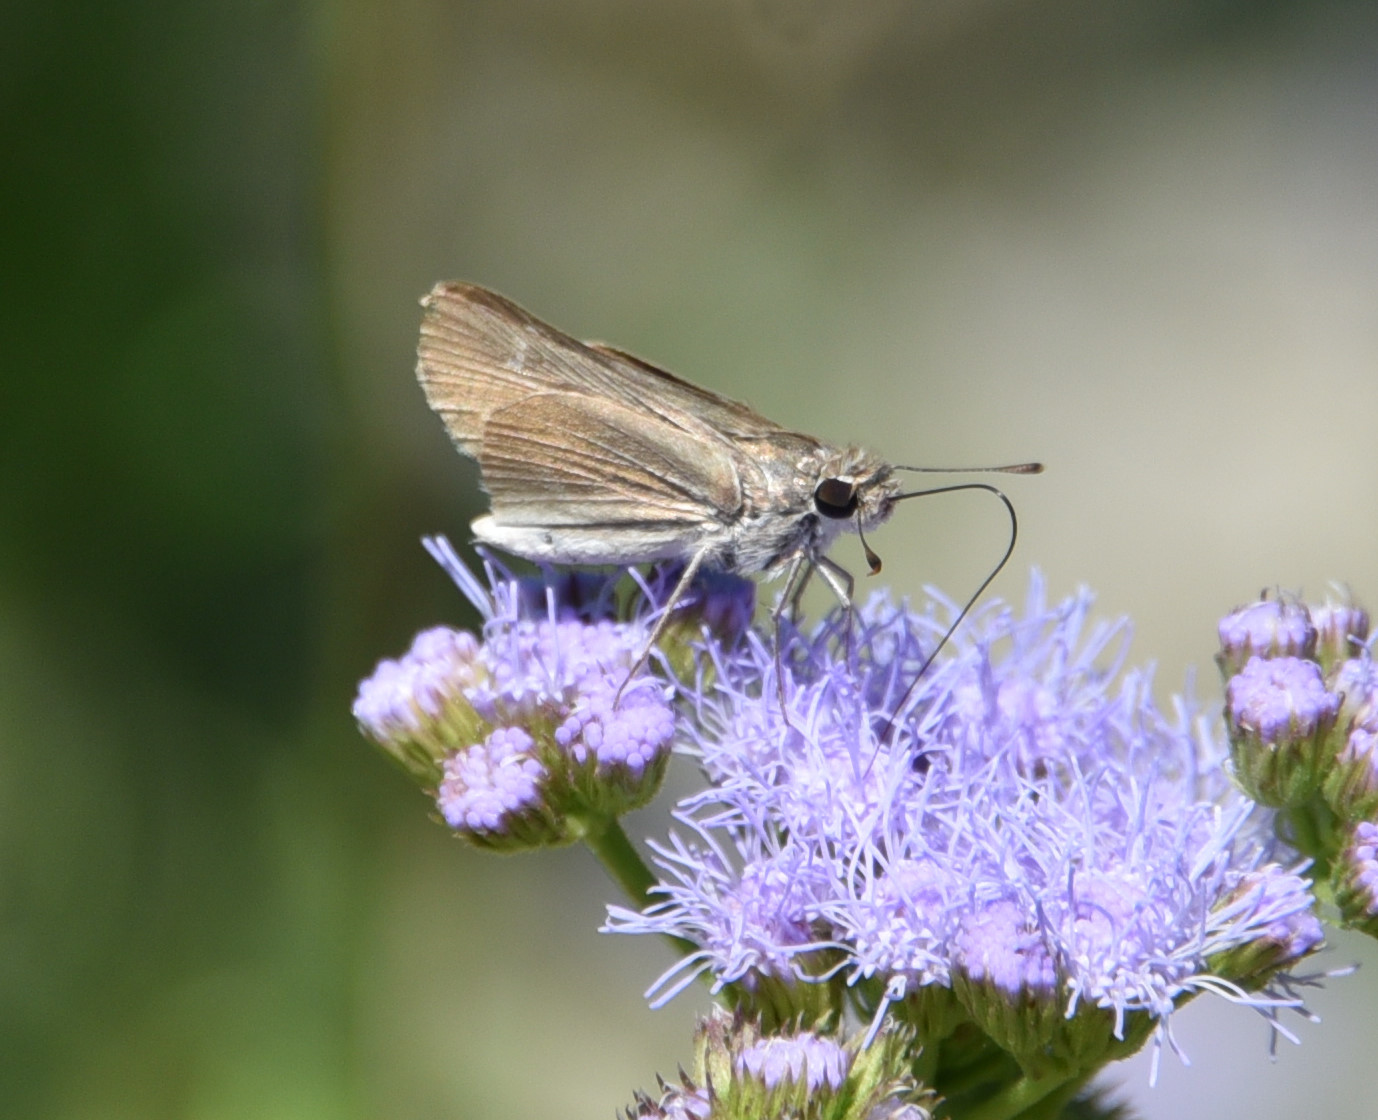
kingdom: Animalia
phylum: Arthropoda
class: Insecta
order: Lepidoptera
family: Hesperiidae
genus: Lerodea
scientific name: Lerodea eufala
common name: Eufala skipper
